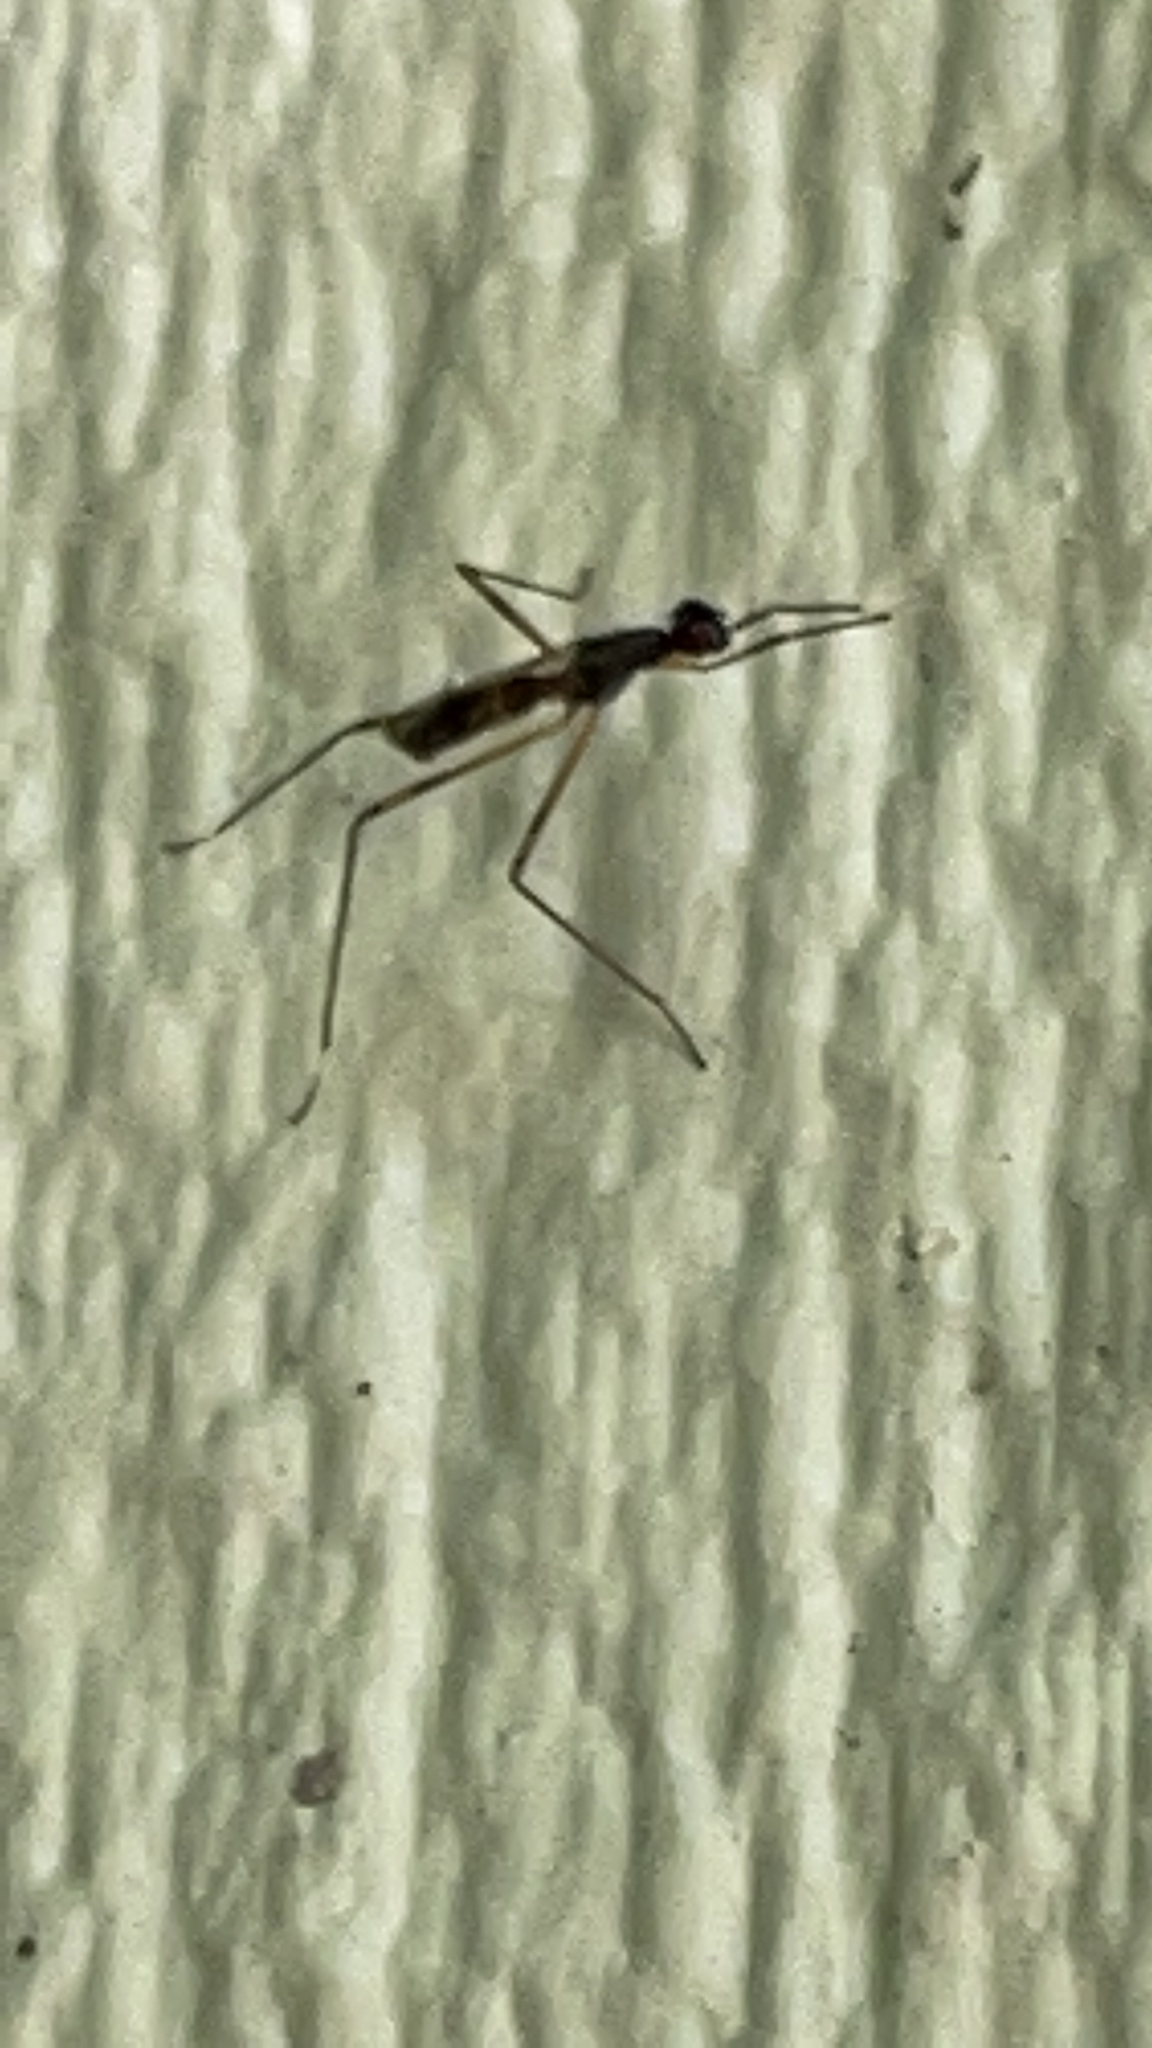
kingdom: Animalia
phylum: Arthropoda
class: Insecta
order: Diptera
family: Micropezidae
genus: Rainieria
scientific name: Rainieria antennaepes
